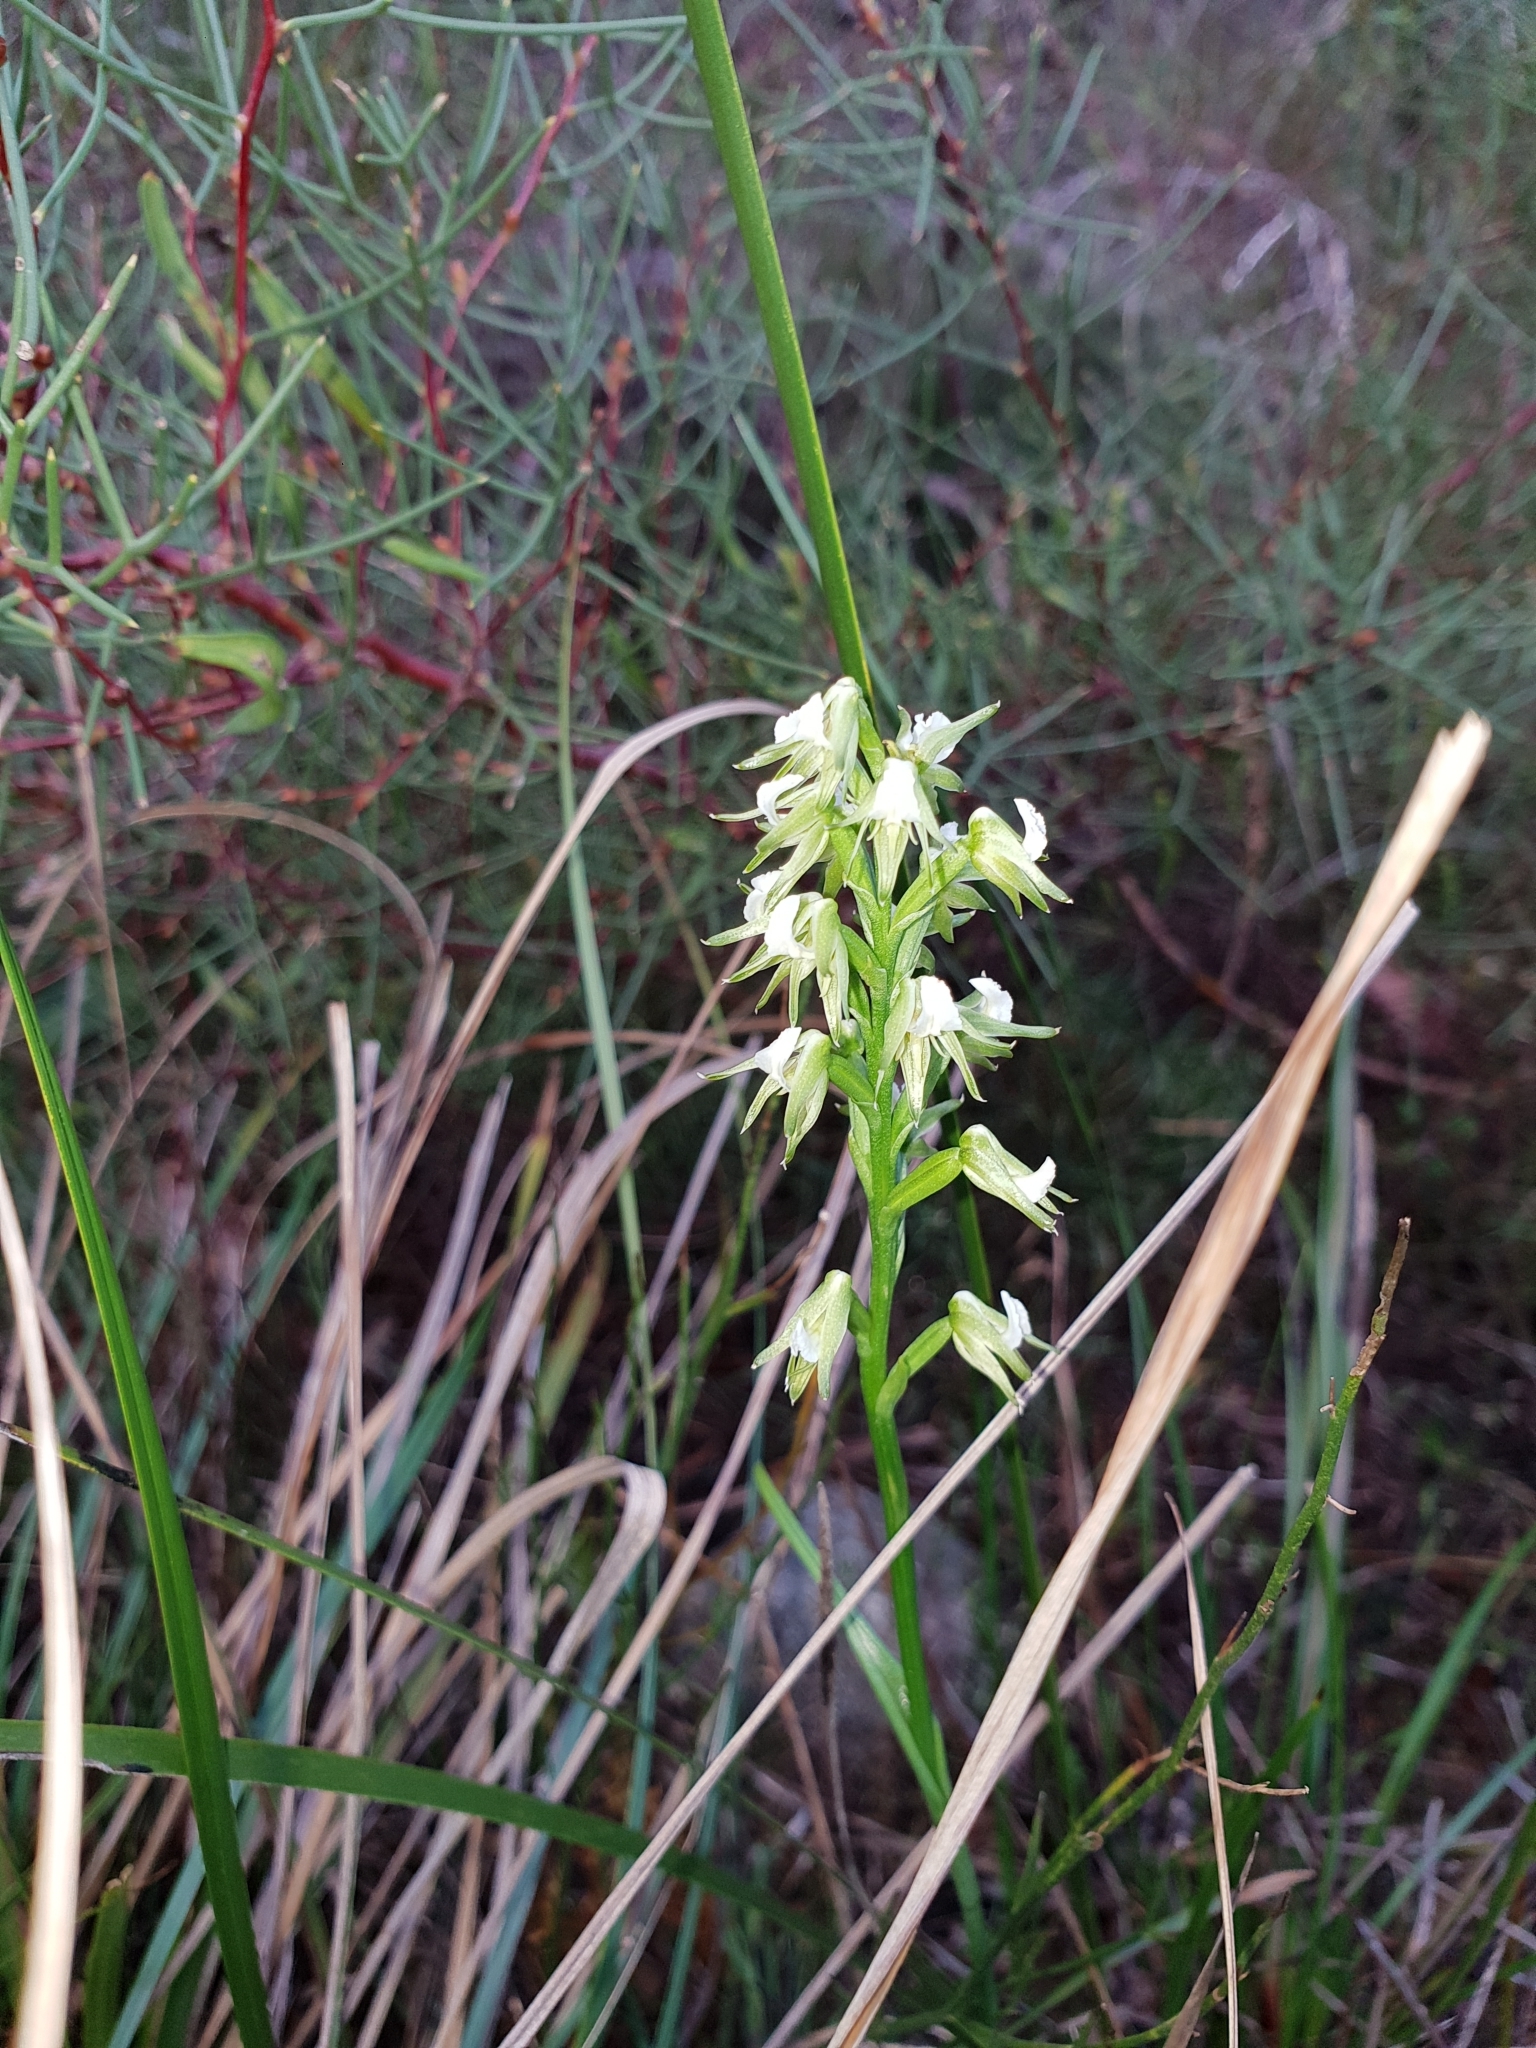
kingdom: Plantae
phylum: Tracheophyta
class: Liliopsida
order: Asparagales
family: Orchidaceae
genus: Prasophyllum
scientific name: Prasophyllum parvifolium
